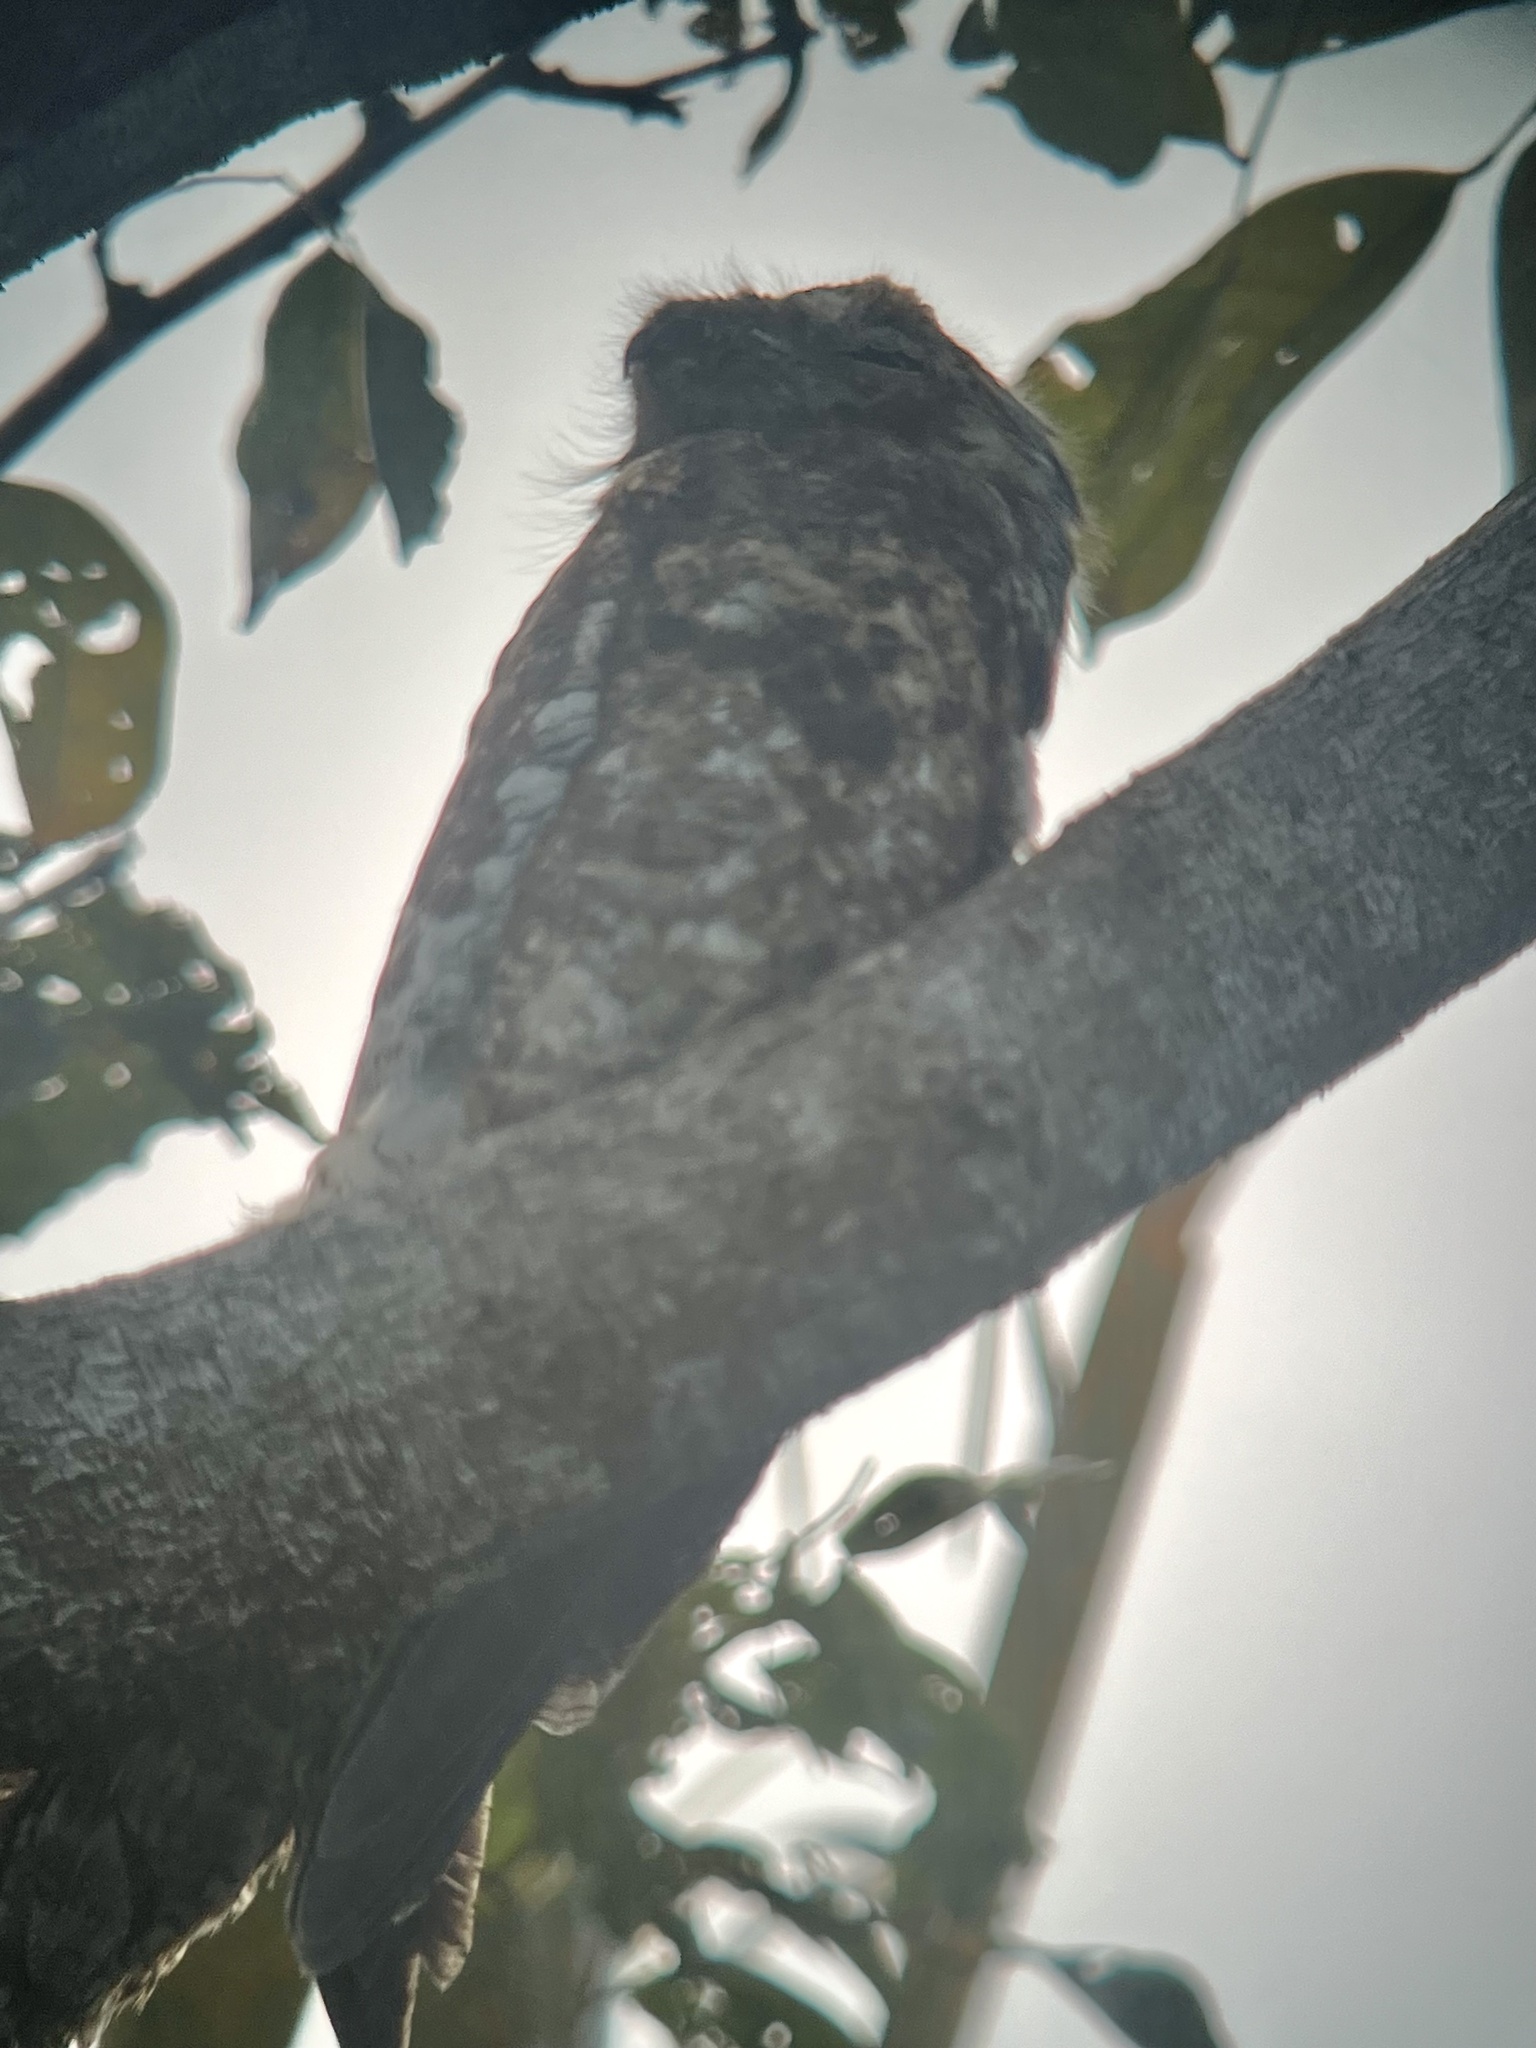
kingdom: Animalia
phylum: Chordata
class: Aves
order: Nyctibiiformes
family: Nyctibiidae
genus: Nyctibius
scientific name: Nyctibius grandis
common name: Great potoo
